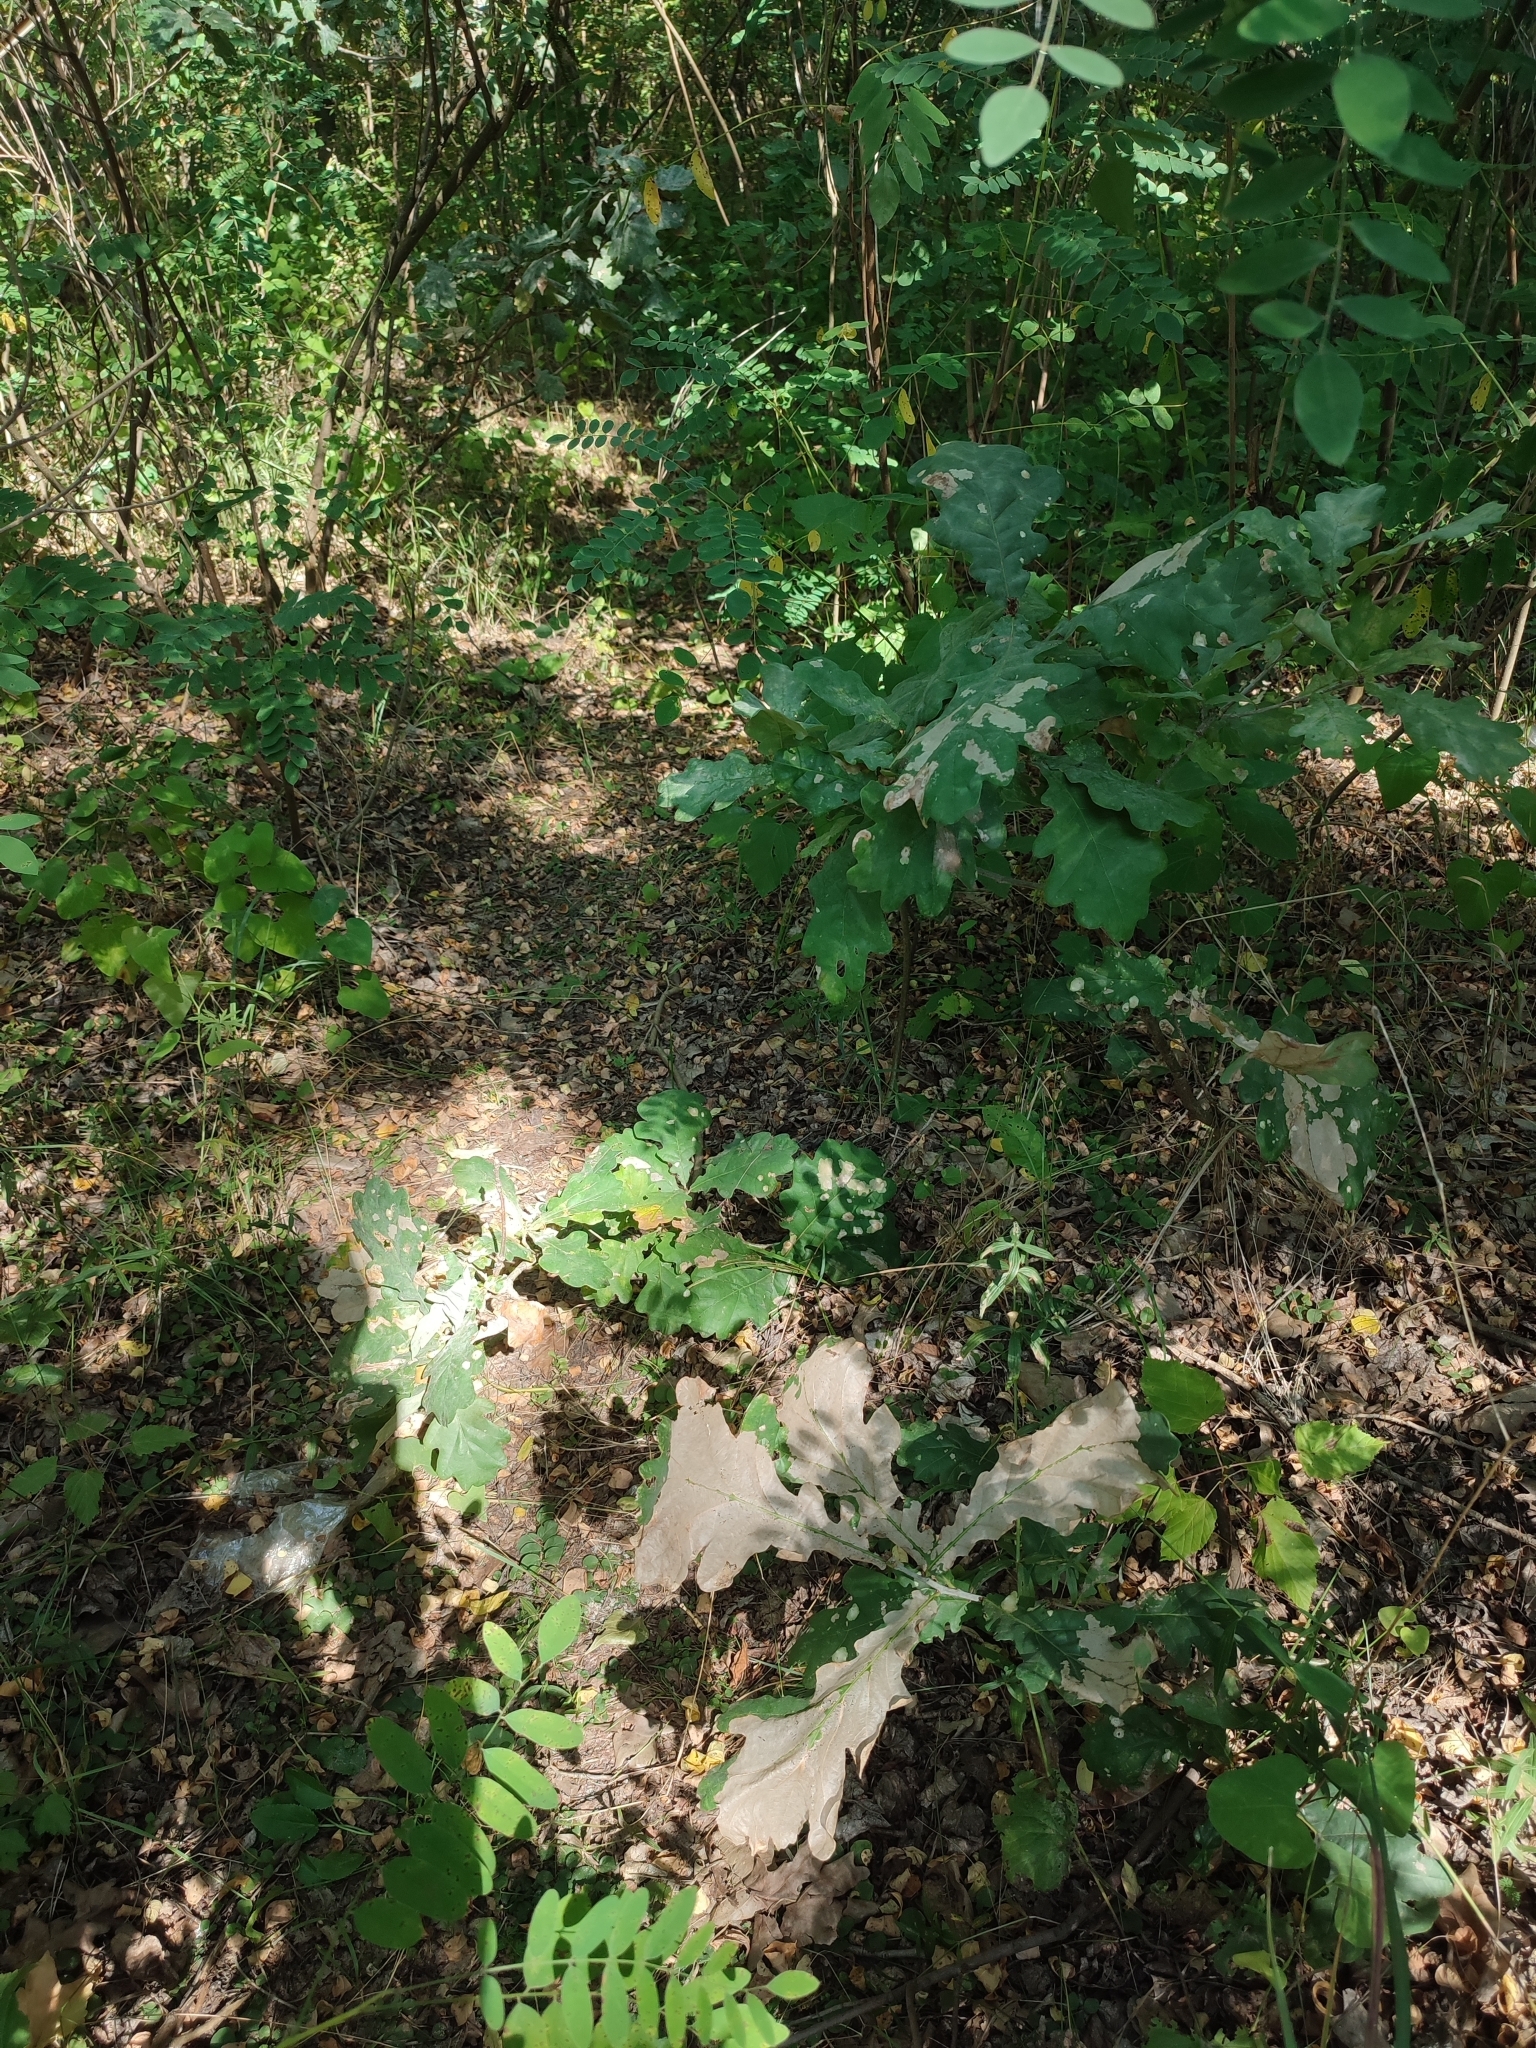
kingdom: Plantae
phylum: Tracheophyta
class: Magnoliopsida
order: Fagales
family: Fagaceae
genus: Quercus
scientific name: Quercus robur
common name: Pedunculate oak
